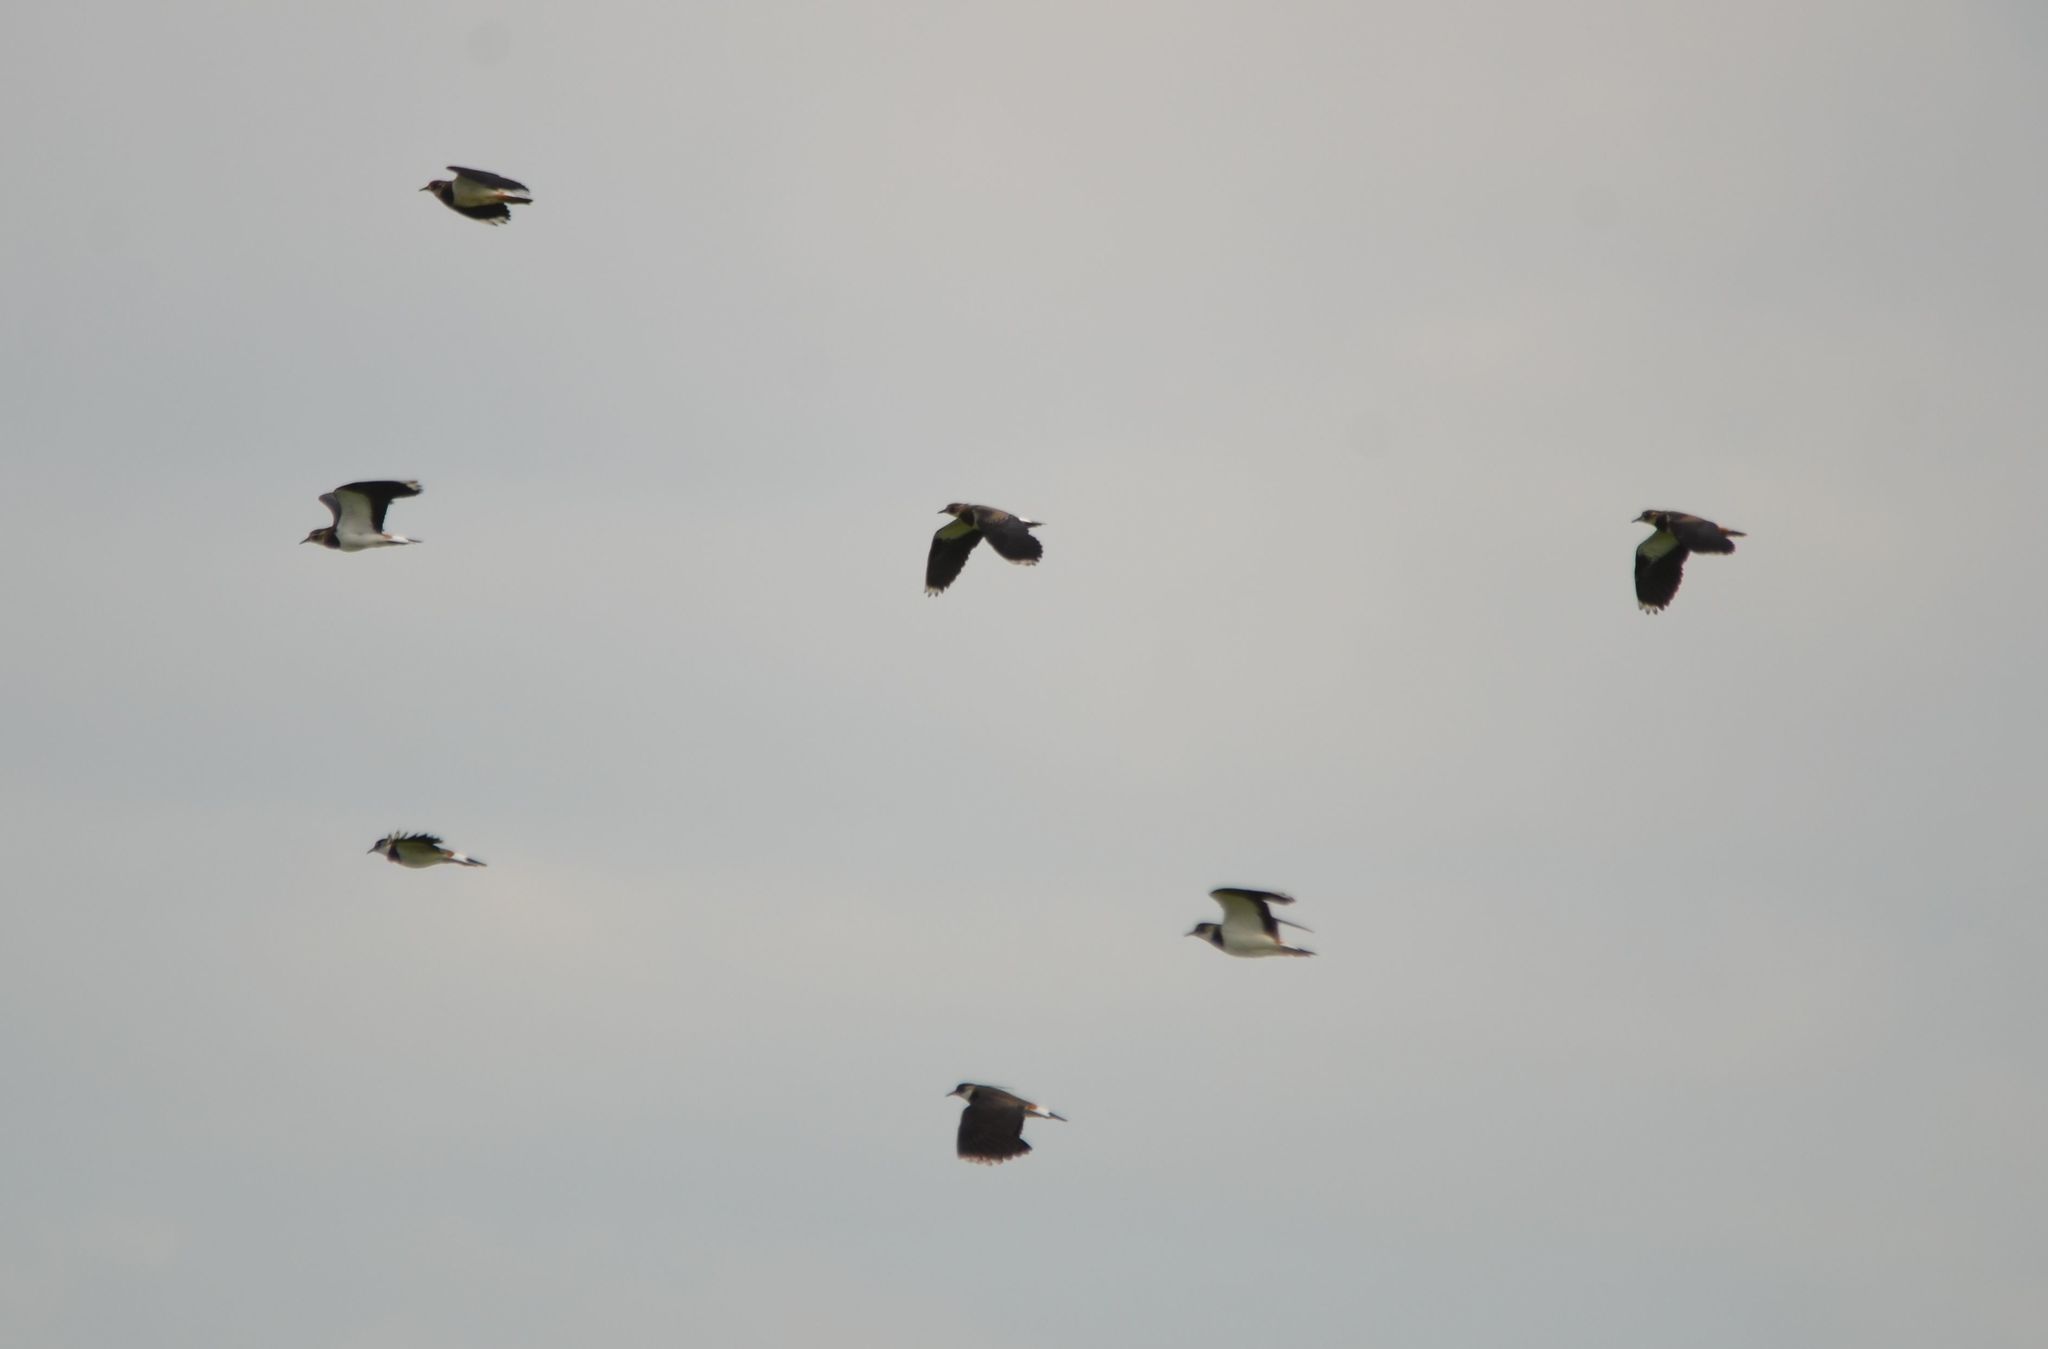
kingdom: Animalia
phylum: Chordata
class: Aves
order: Charadriiformes
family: Charadriidae
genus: Vanellus
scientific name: Vanellus vanellus
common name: Northern lapwing
